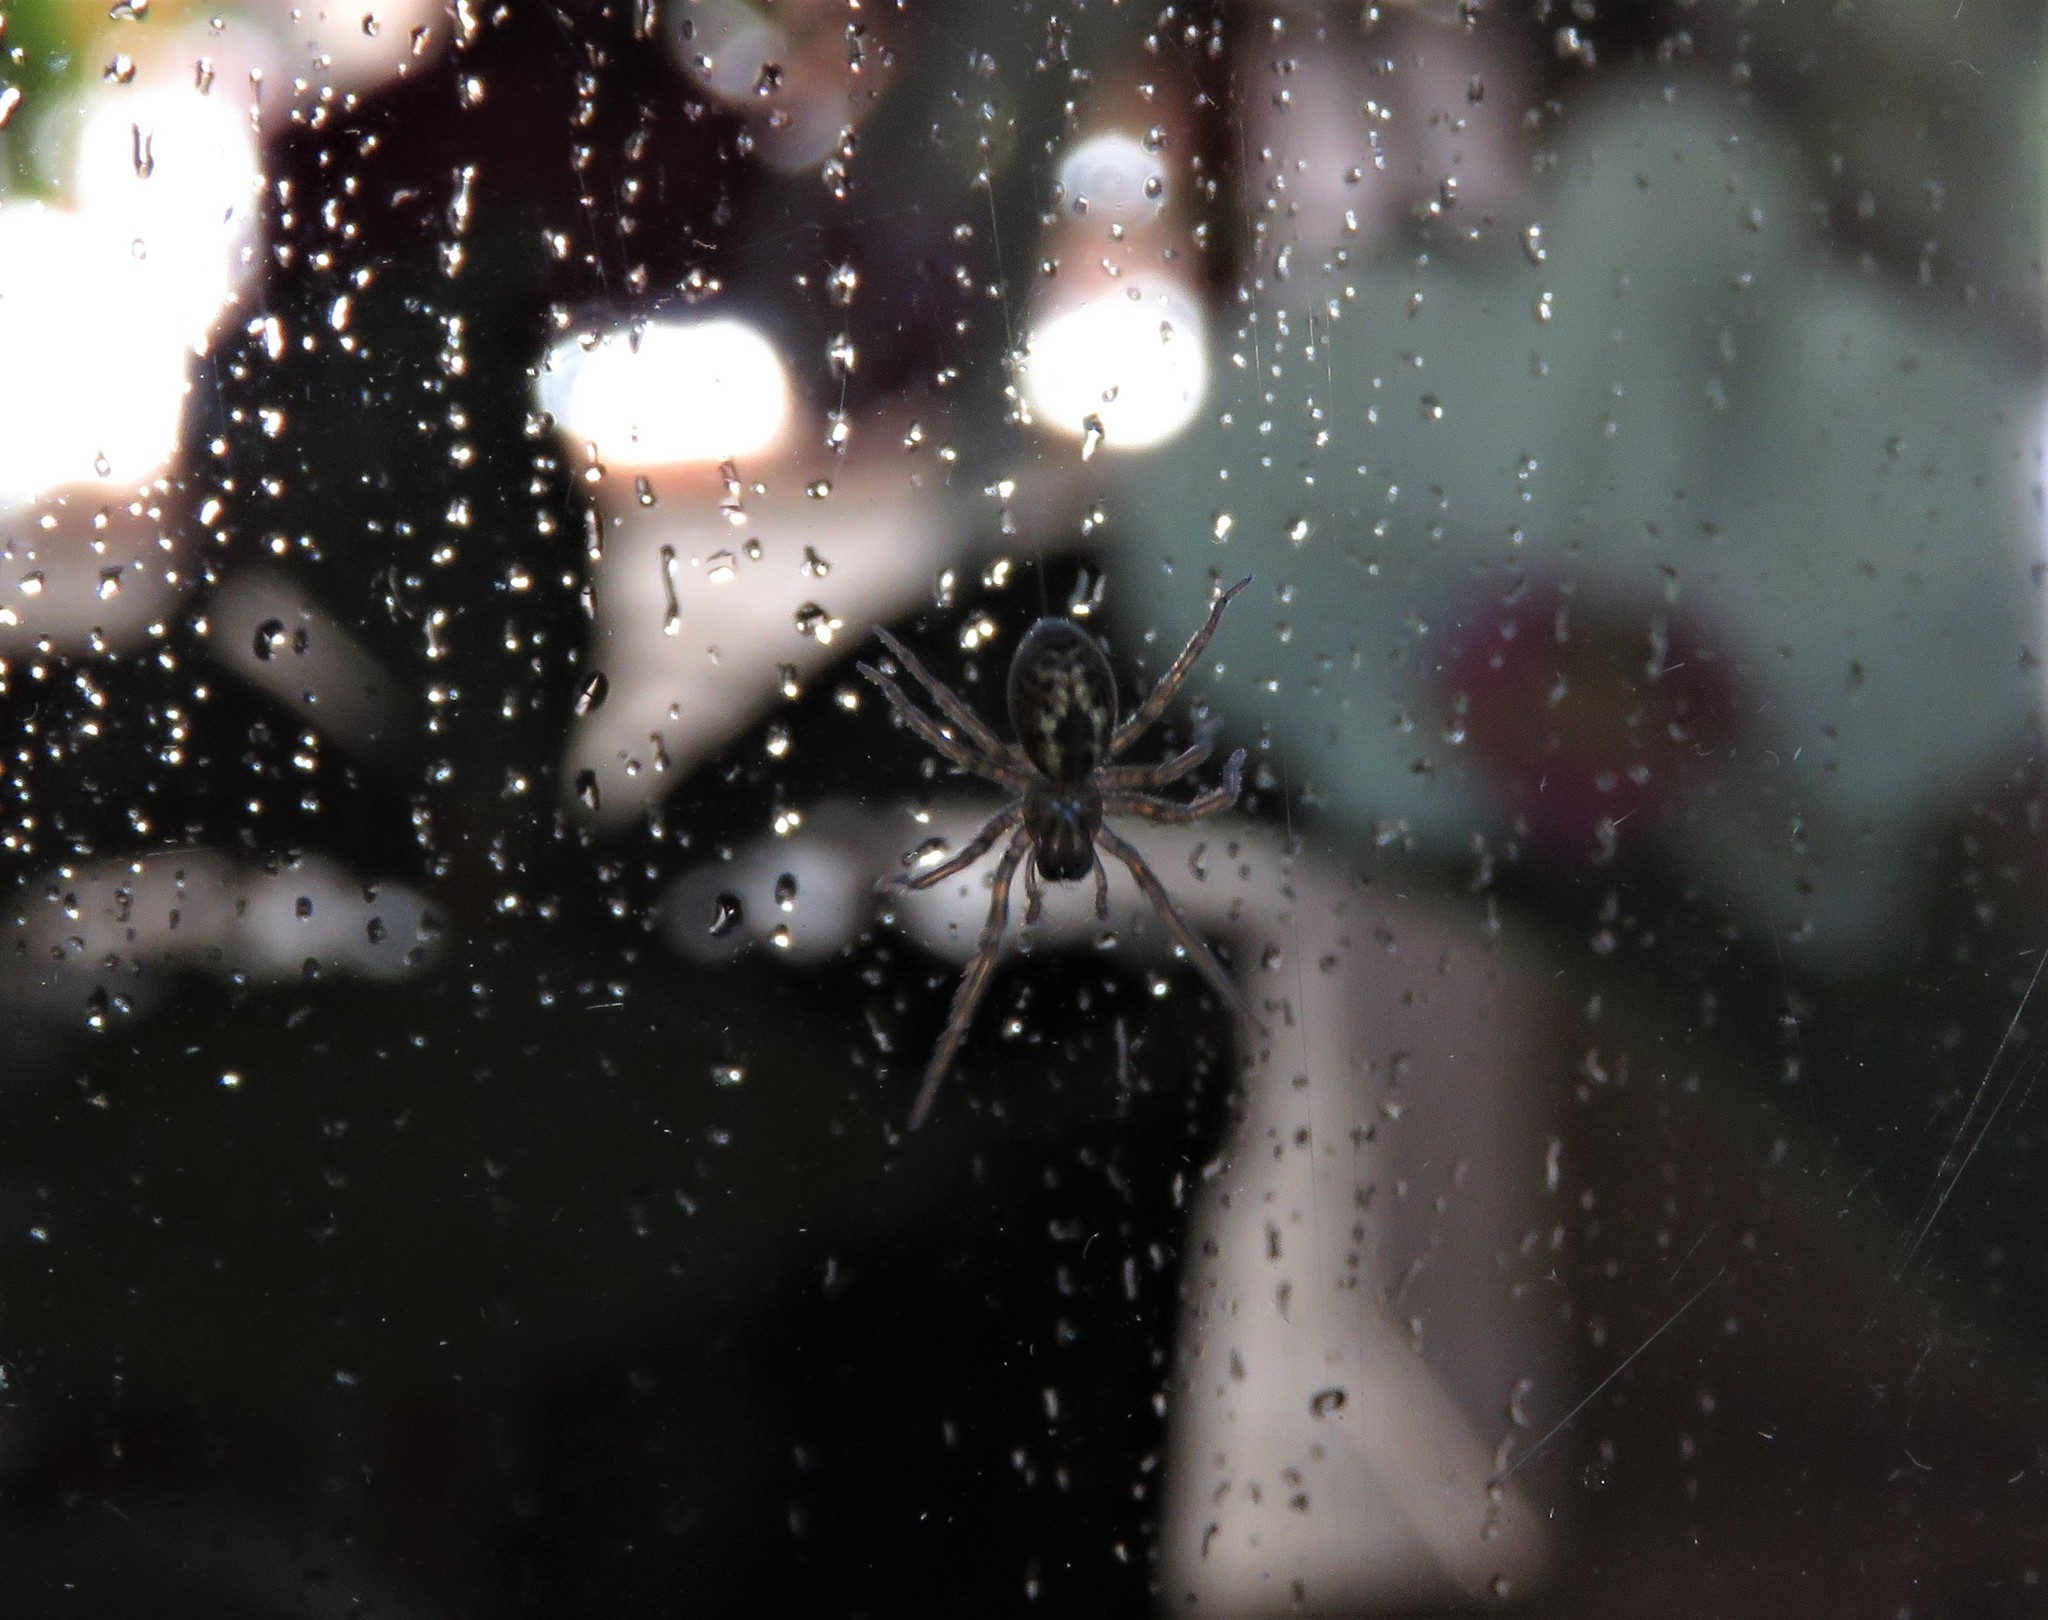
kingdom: Animalia
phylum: Arthropoda
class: Arachnida
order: Araneae
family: Amaurobiidae
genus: Amaurobius
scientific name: Amaurobius similis
